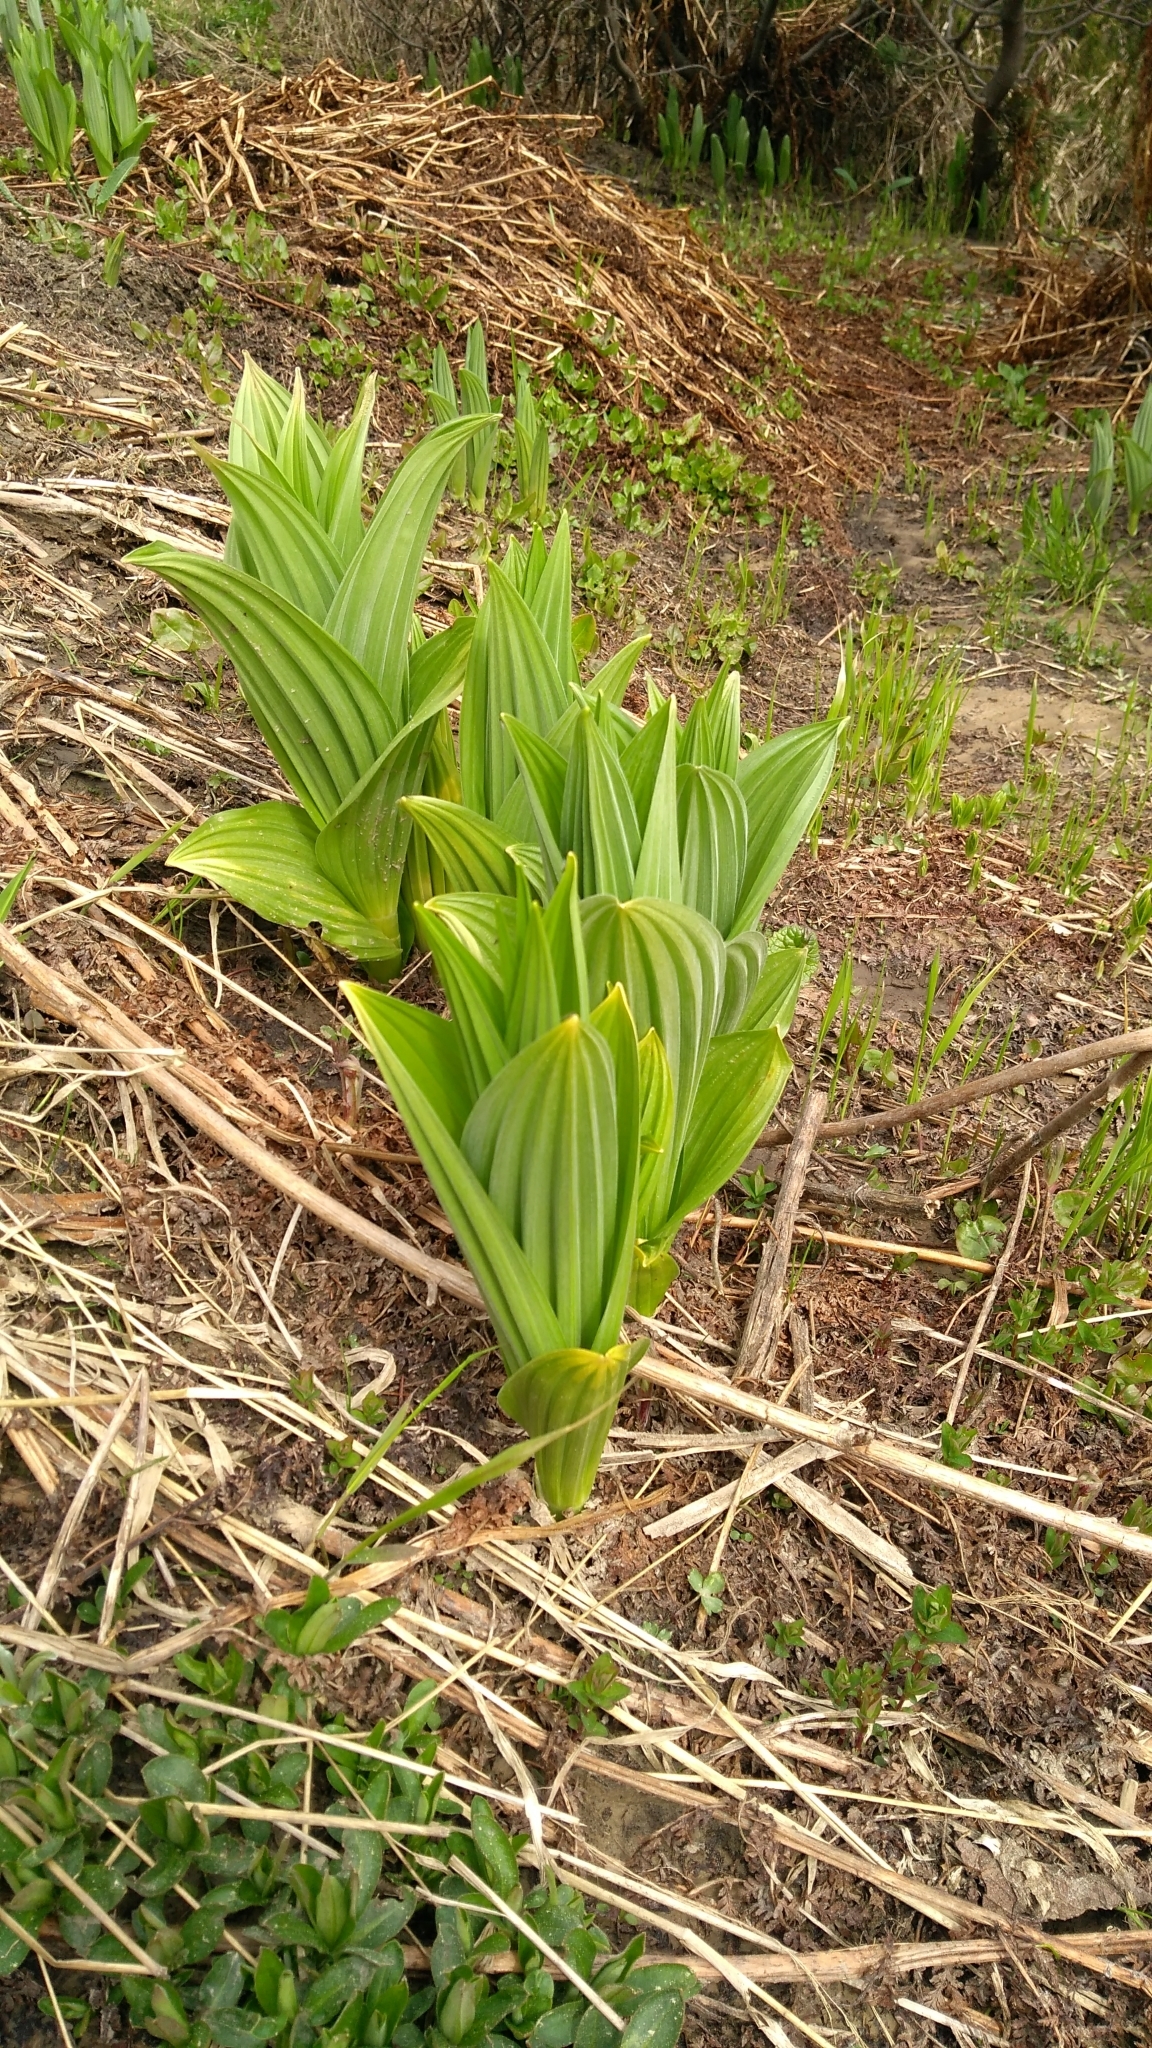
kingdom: Plantae
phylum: Tracheophyta
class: Liliopsida
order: Liliales
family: Melanthiaceae
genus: Veratrum
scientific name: Veratrum lobelianum
